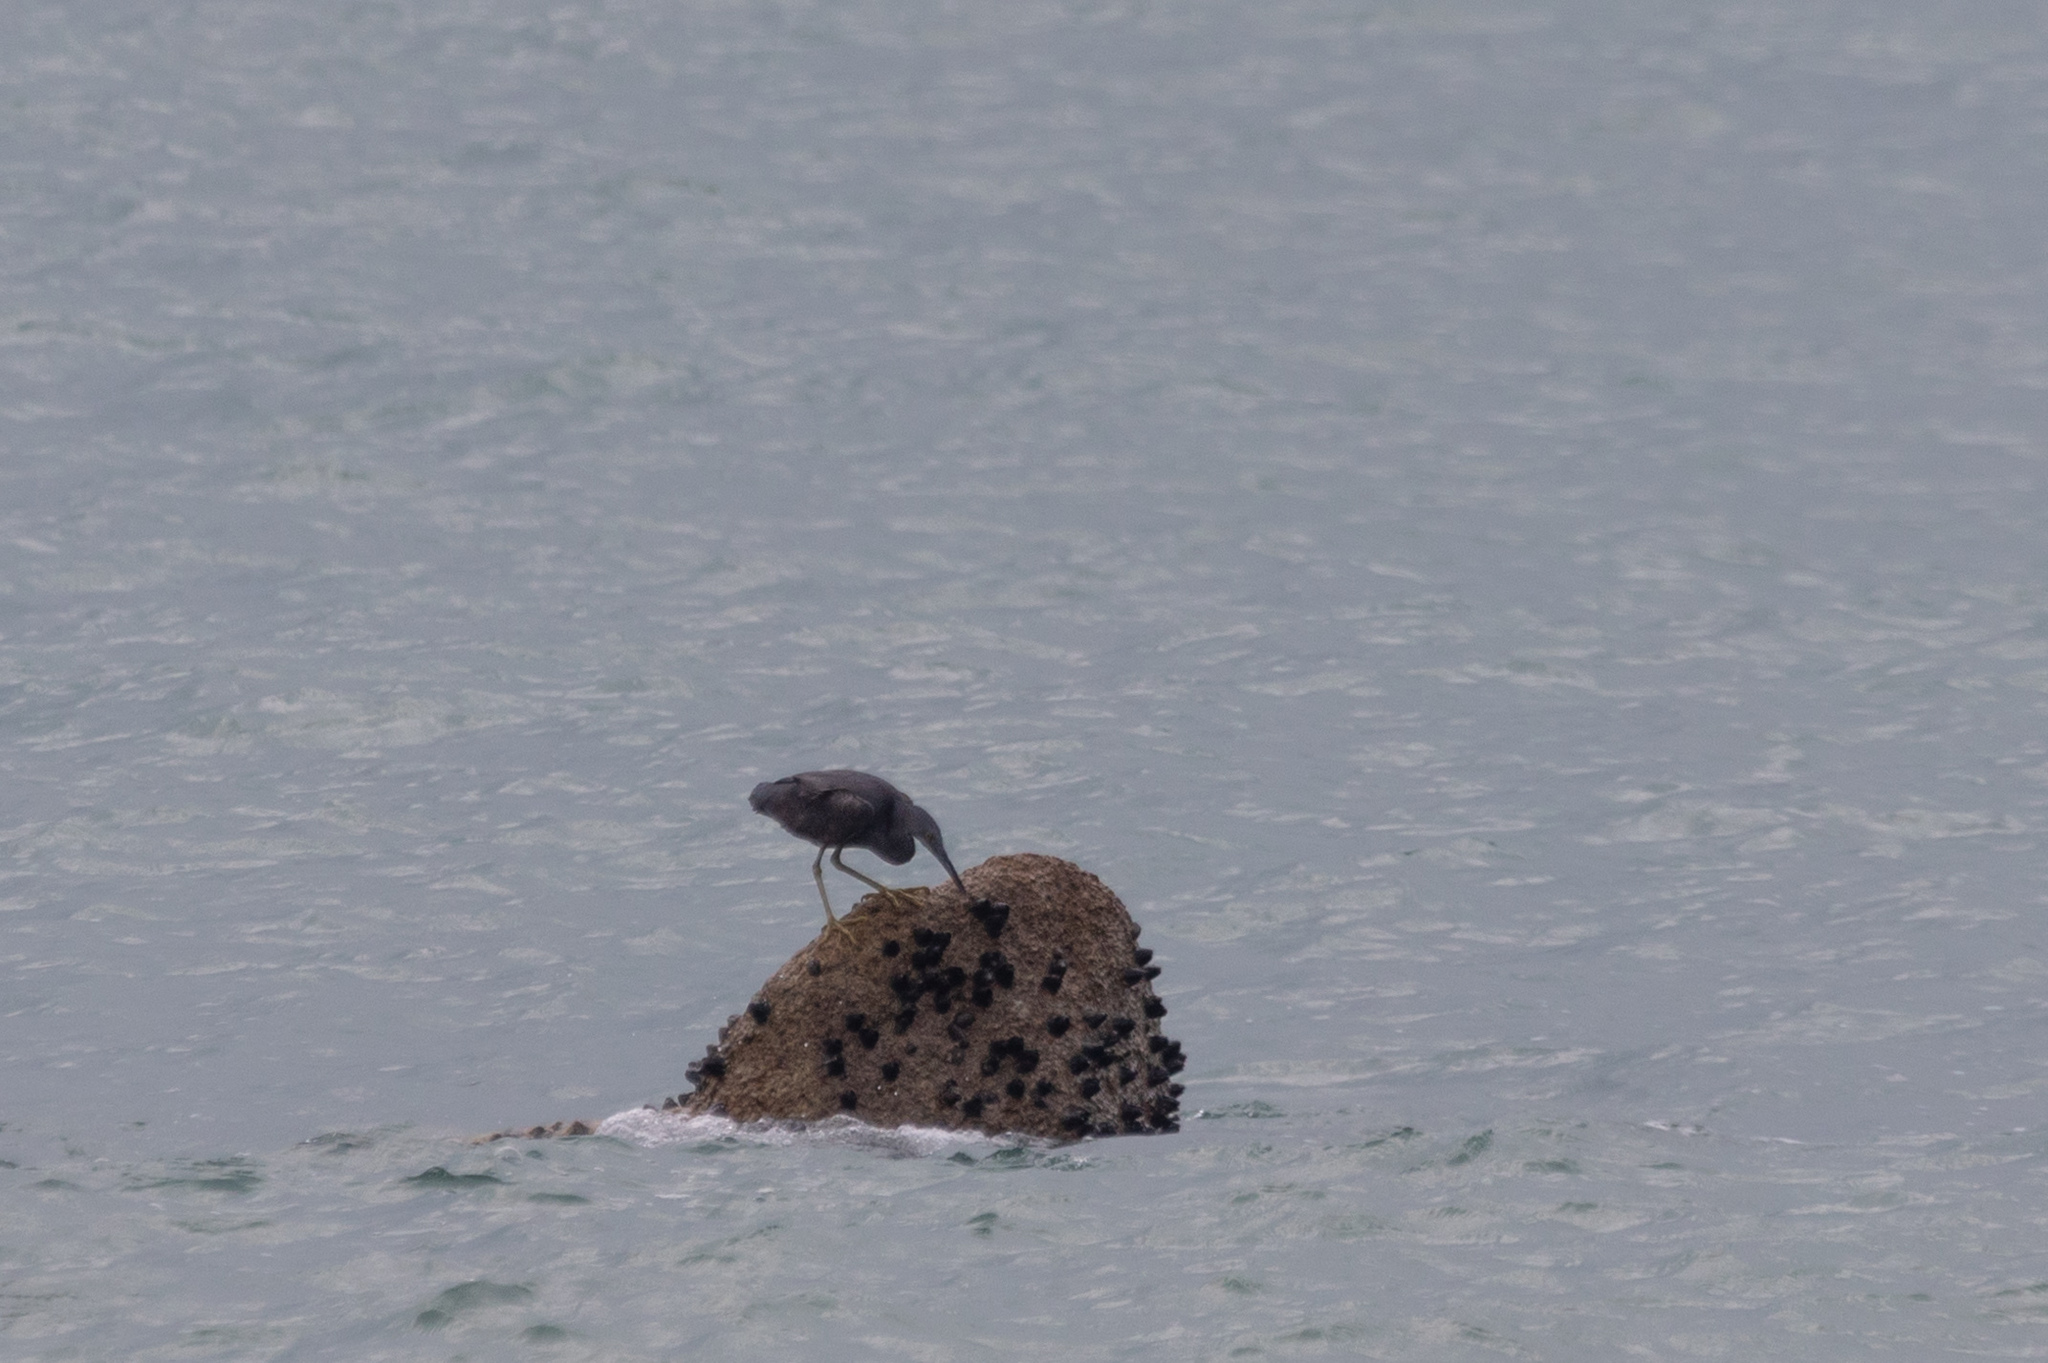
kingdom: Animalia
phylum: Chordata
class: Aves
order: Pelecaniformes
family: Ardeidae
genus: Egretta
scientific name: Egretta sacra
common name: Pacific reef heron
